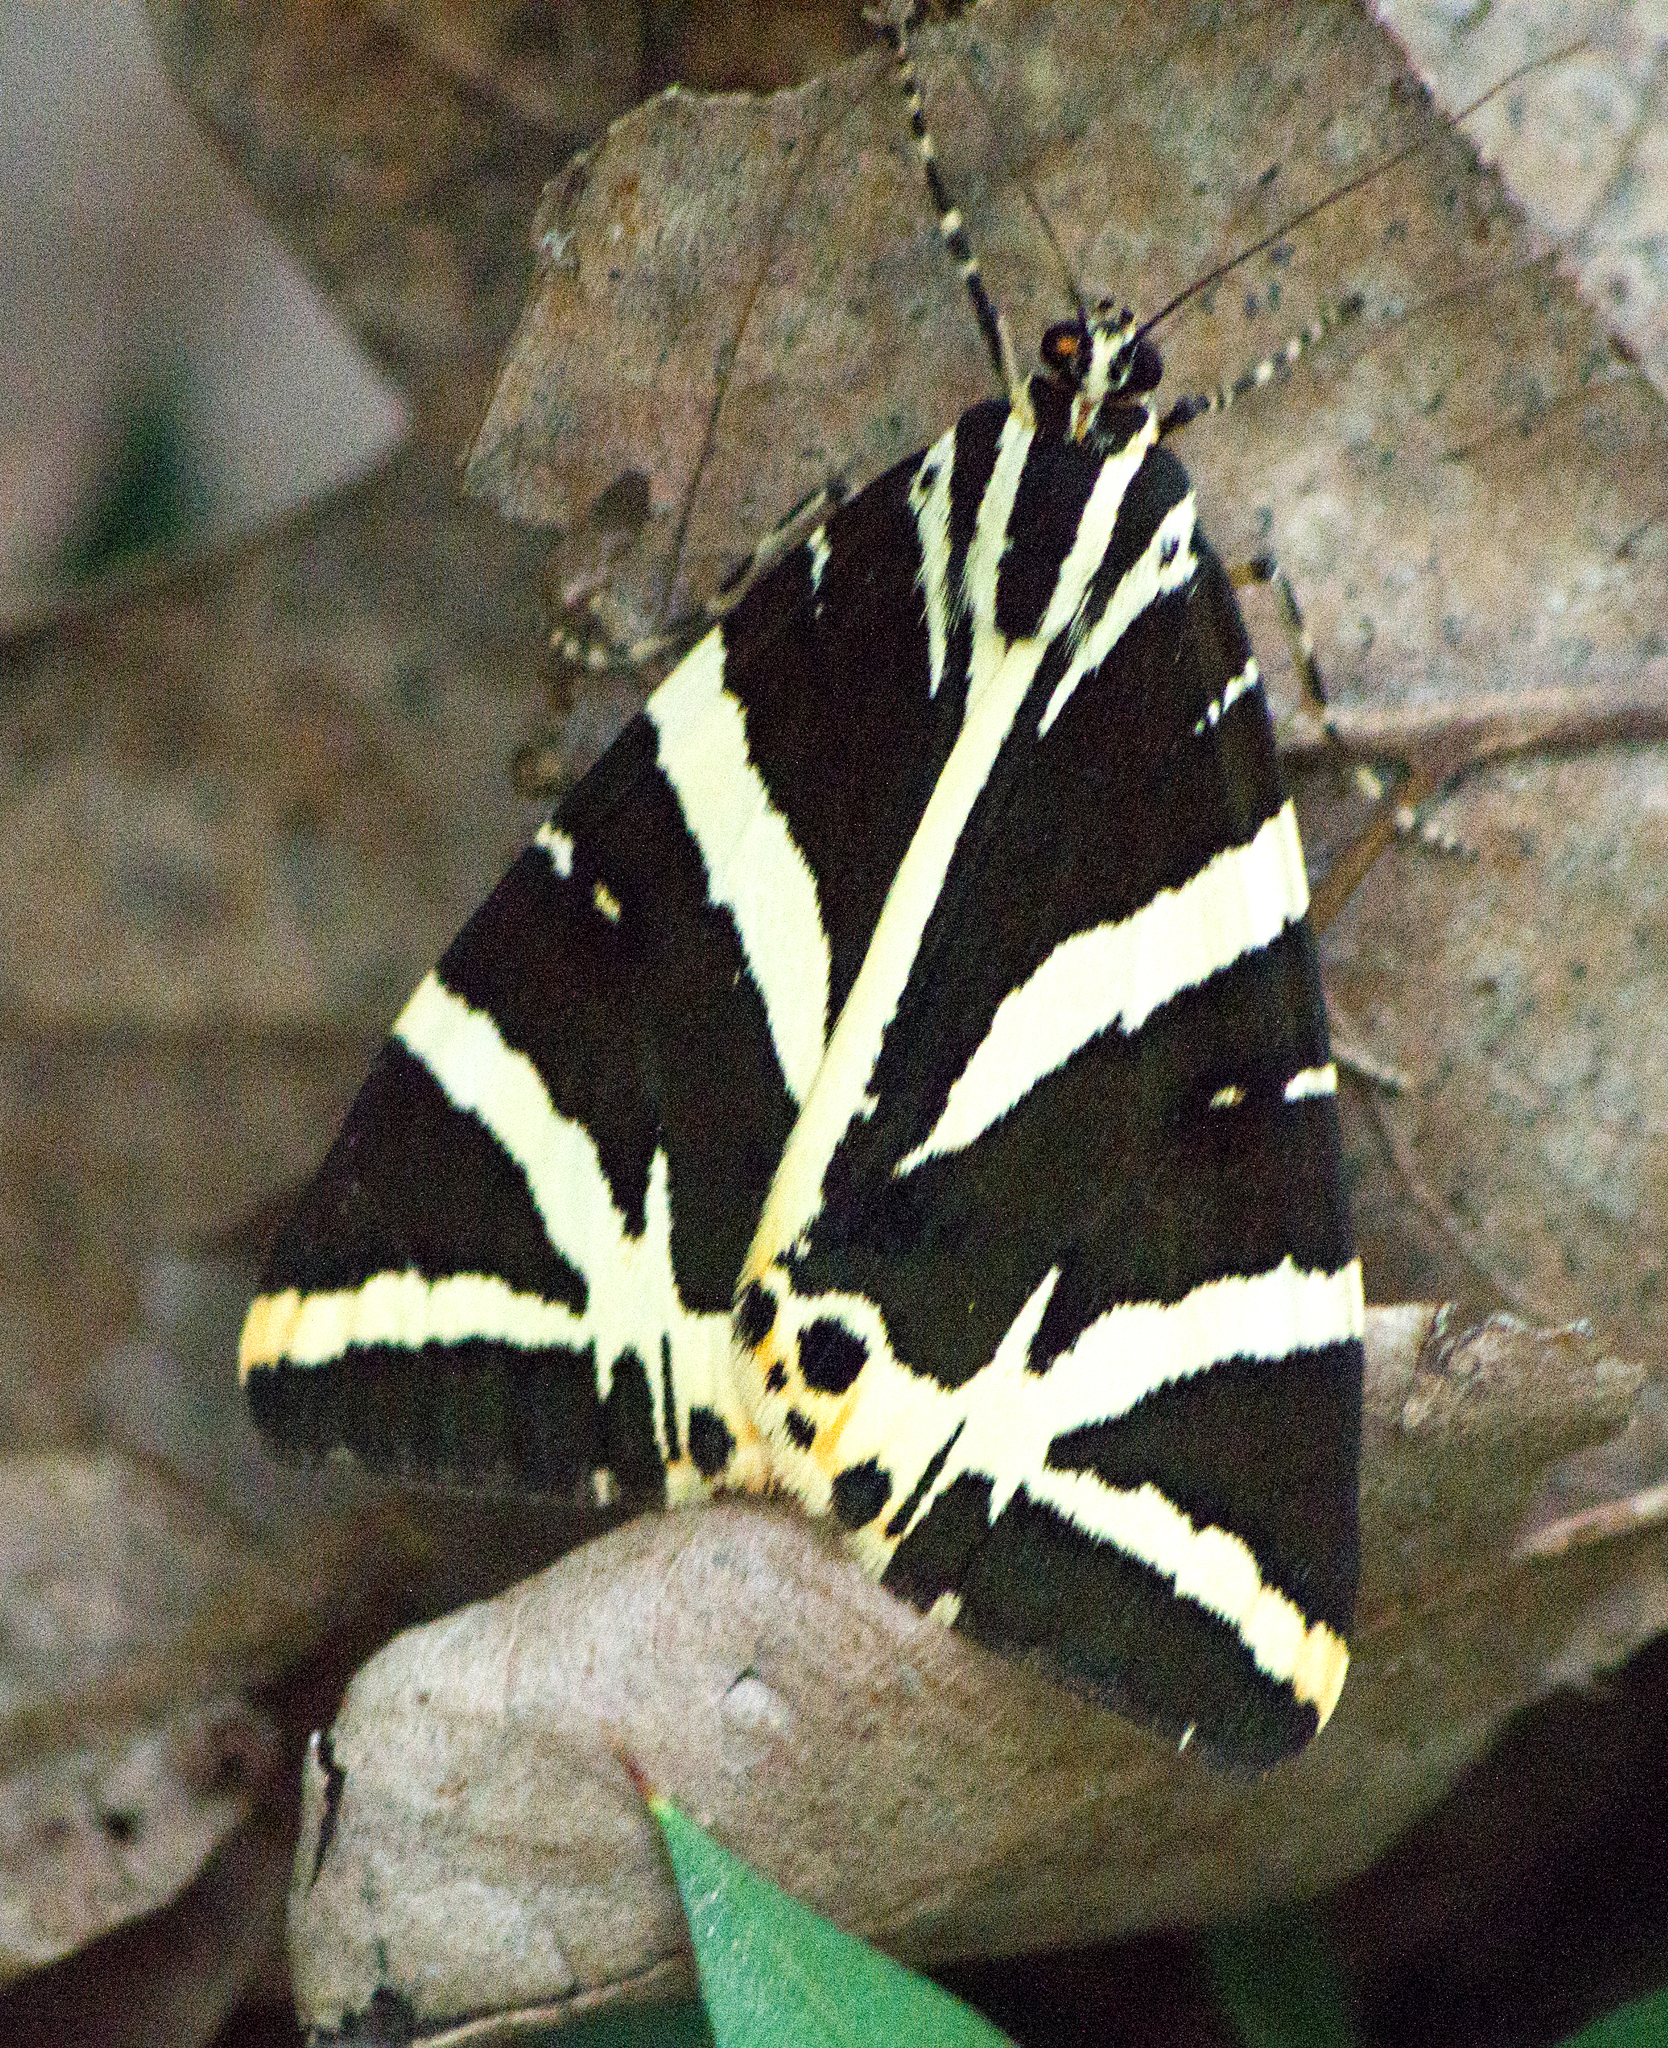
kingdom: Animalia
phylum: Arthropoda
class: Insecta
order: Lepidoptera
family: Erebidae
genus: Euplagia
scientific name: Euplagia quadripunctaria
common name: Jersey tiger
